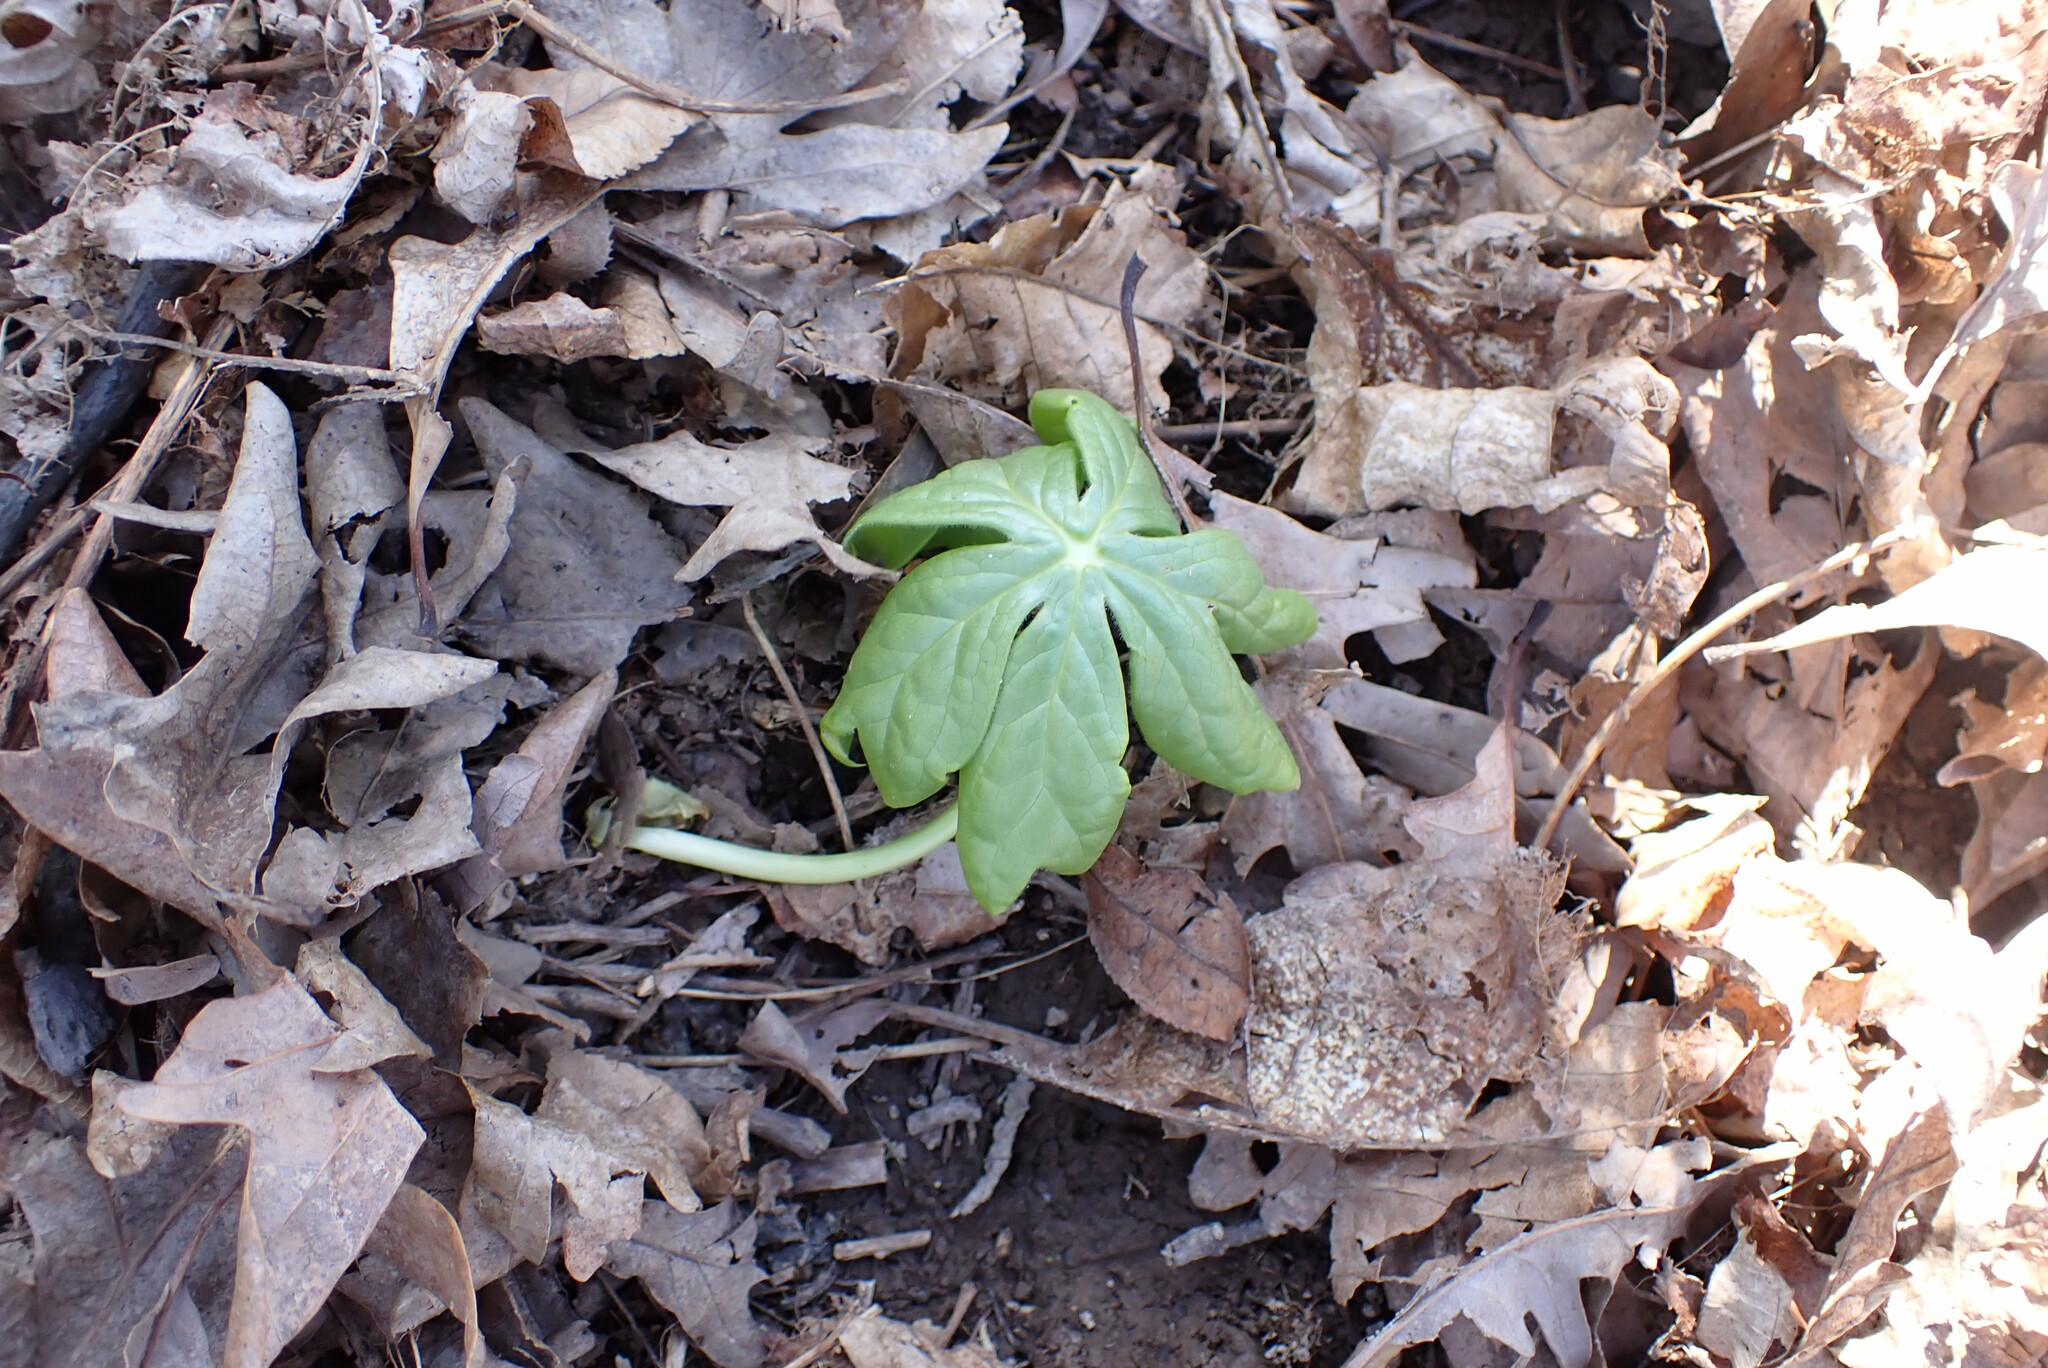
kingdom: Plantae
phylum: Tracheophyta
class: Magnoliopsida
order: Ranunculales
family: Berberidaceae
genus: Podophyllum
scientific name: Podophyllum peltatum
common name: Wild mandrake
